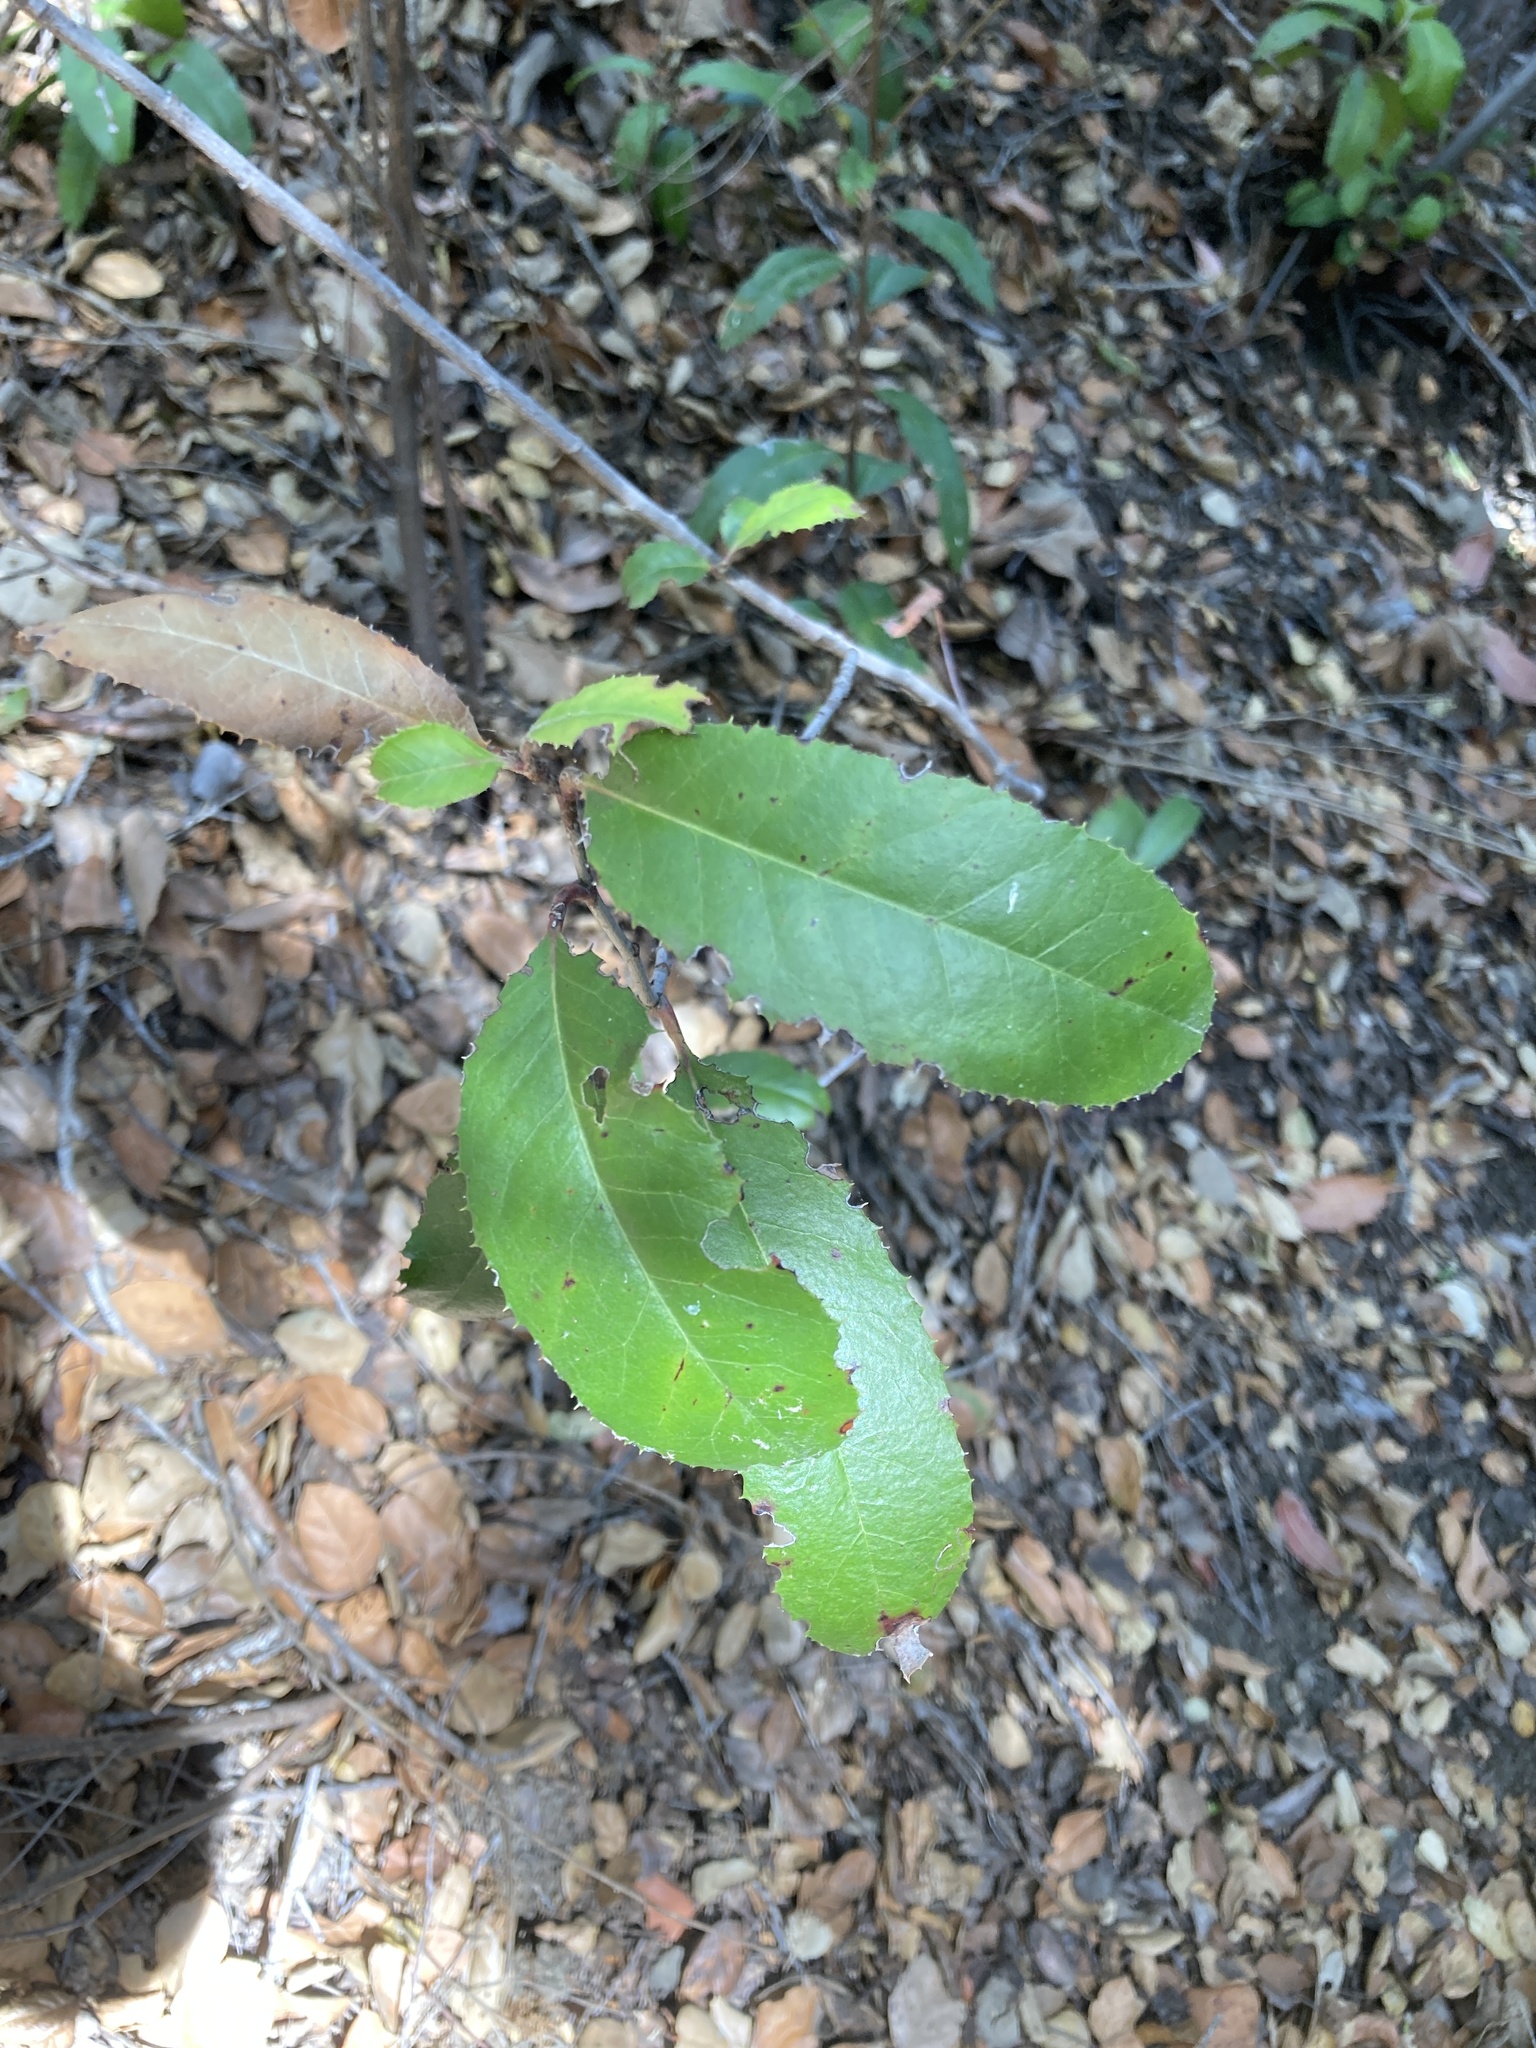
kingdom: Plantae
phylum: Tracheophyta
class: Magnoliopsida
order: Rosales
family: Rosaceae
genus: Heteromeles
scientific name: Heteromeles arbutifolia
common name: California-holly
